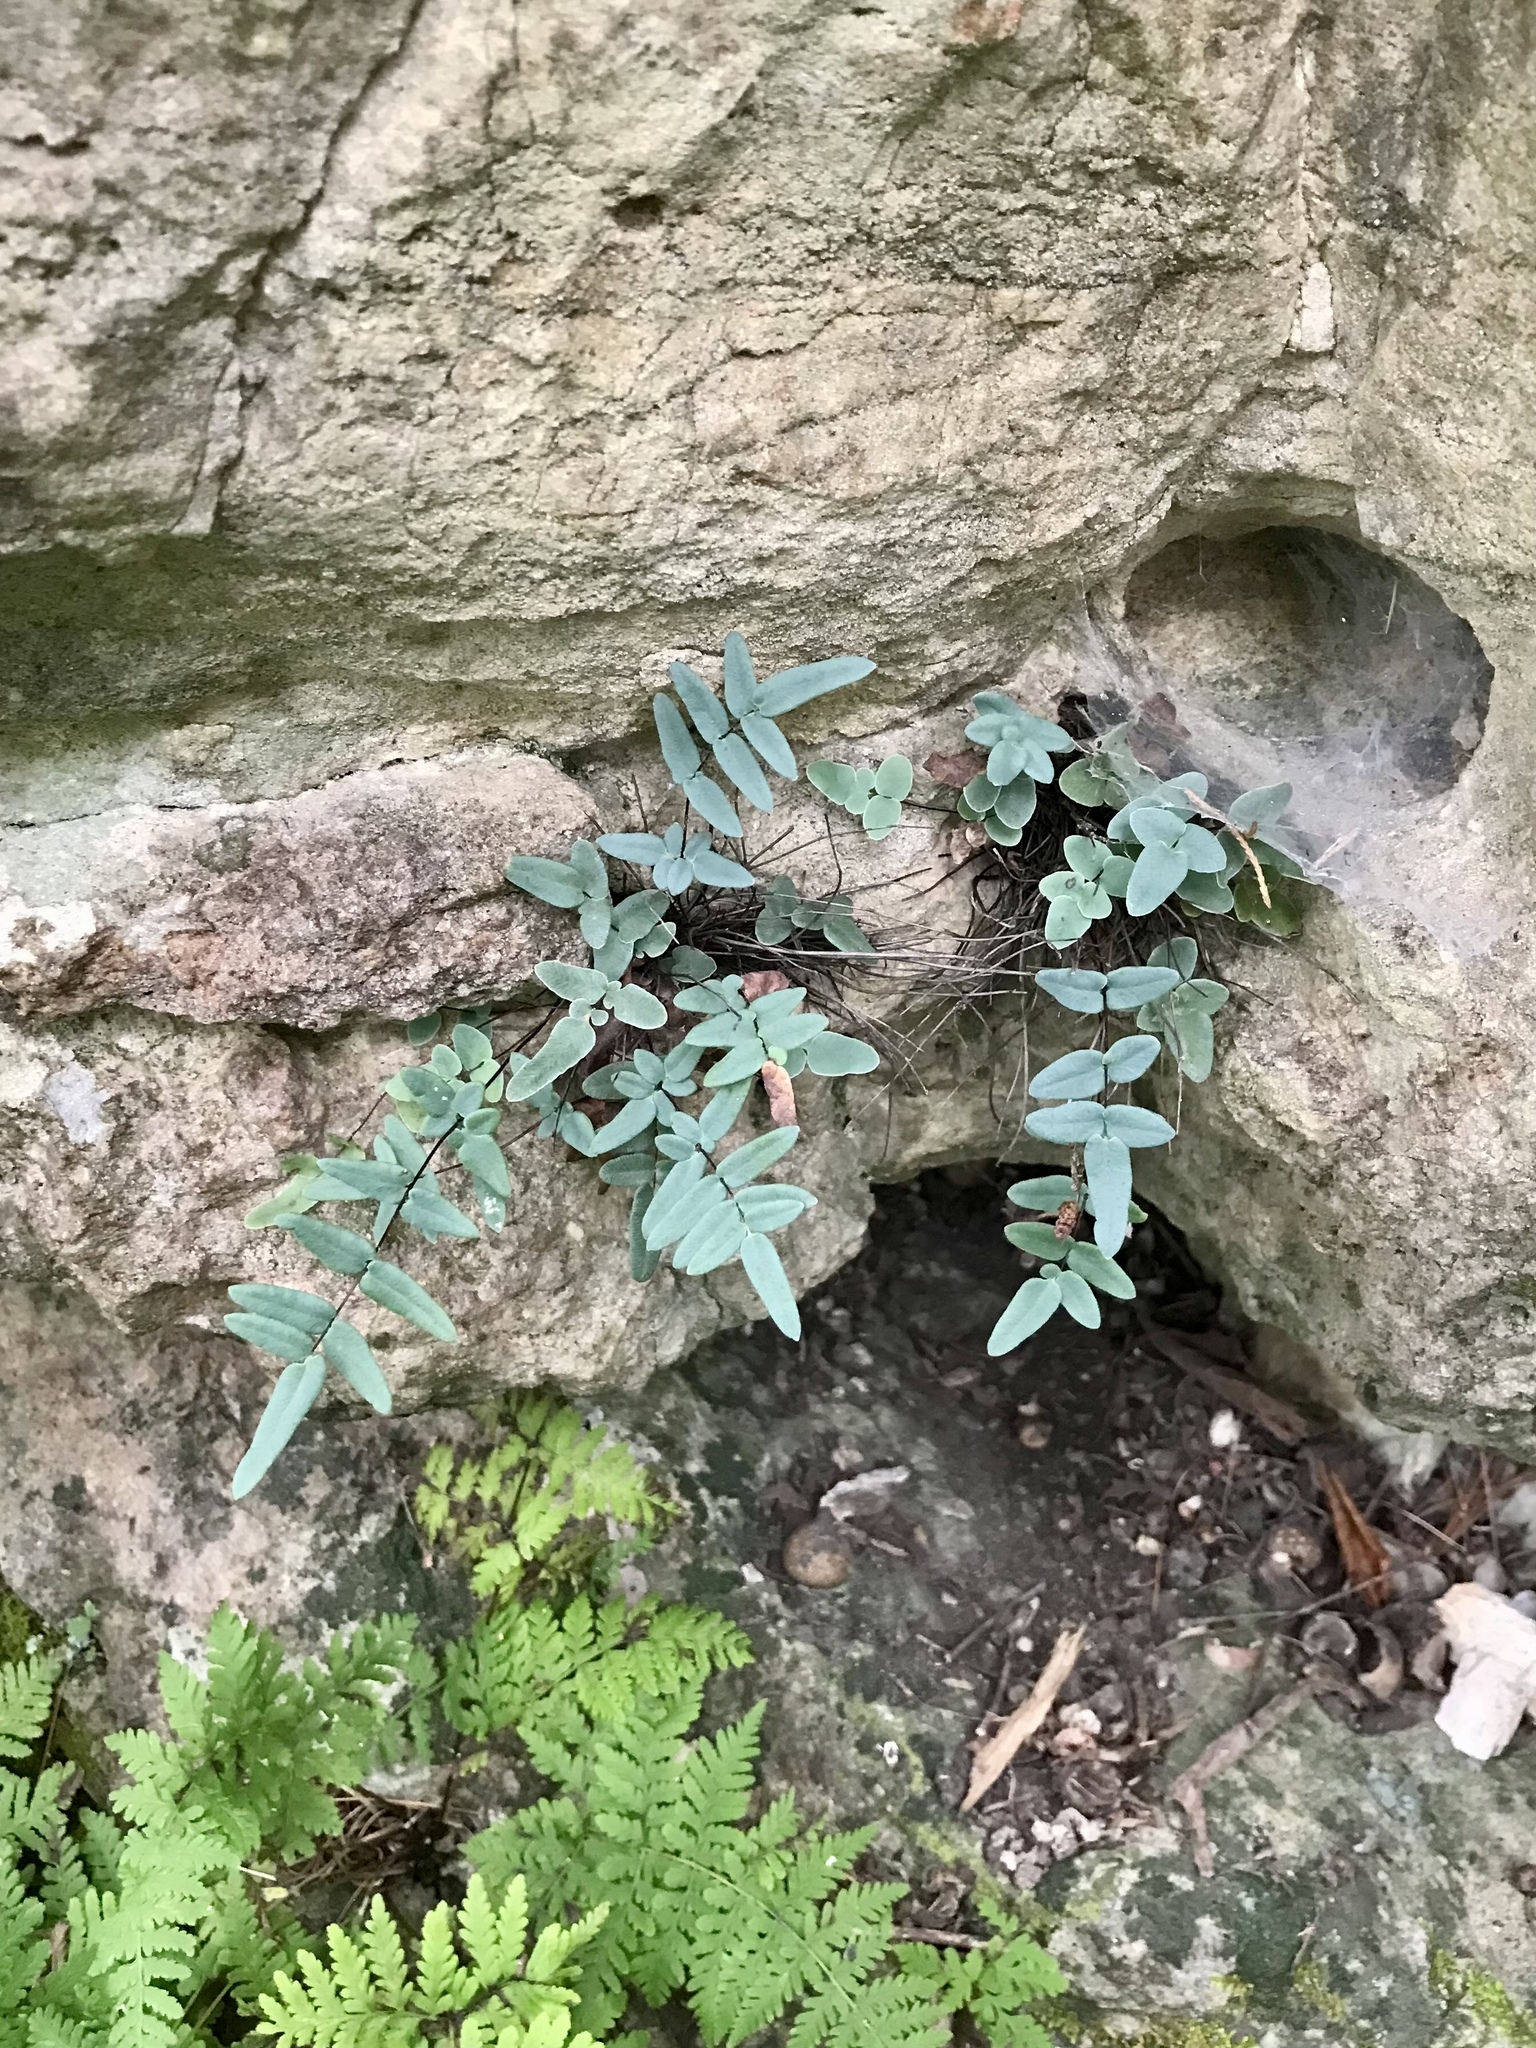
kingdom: Plantae
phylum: Tracheophyta
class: Polypodiopsida
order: Polypodiales
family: Pteridaceae
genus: Pellaea
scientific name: Pellaea glabella
